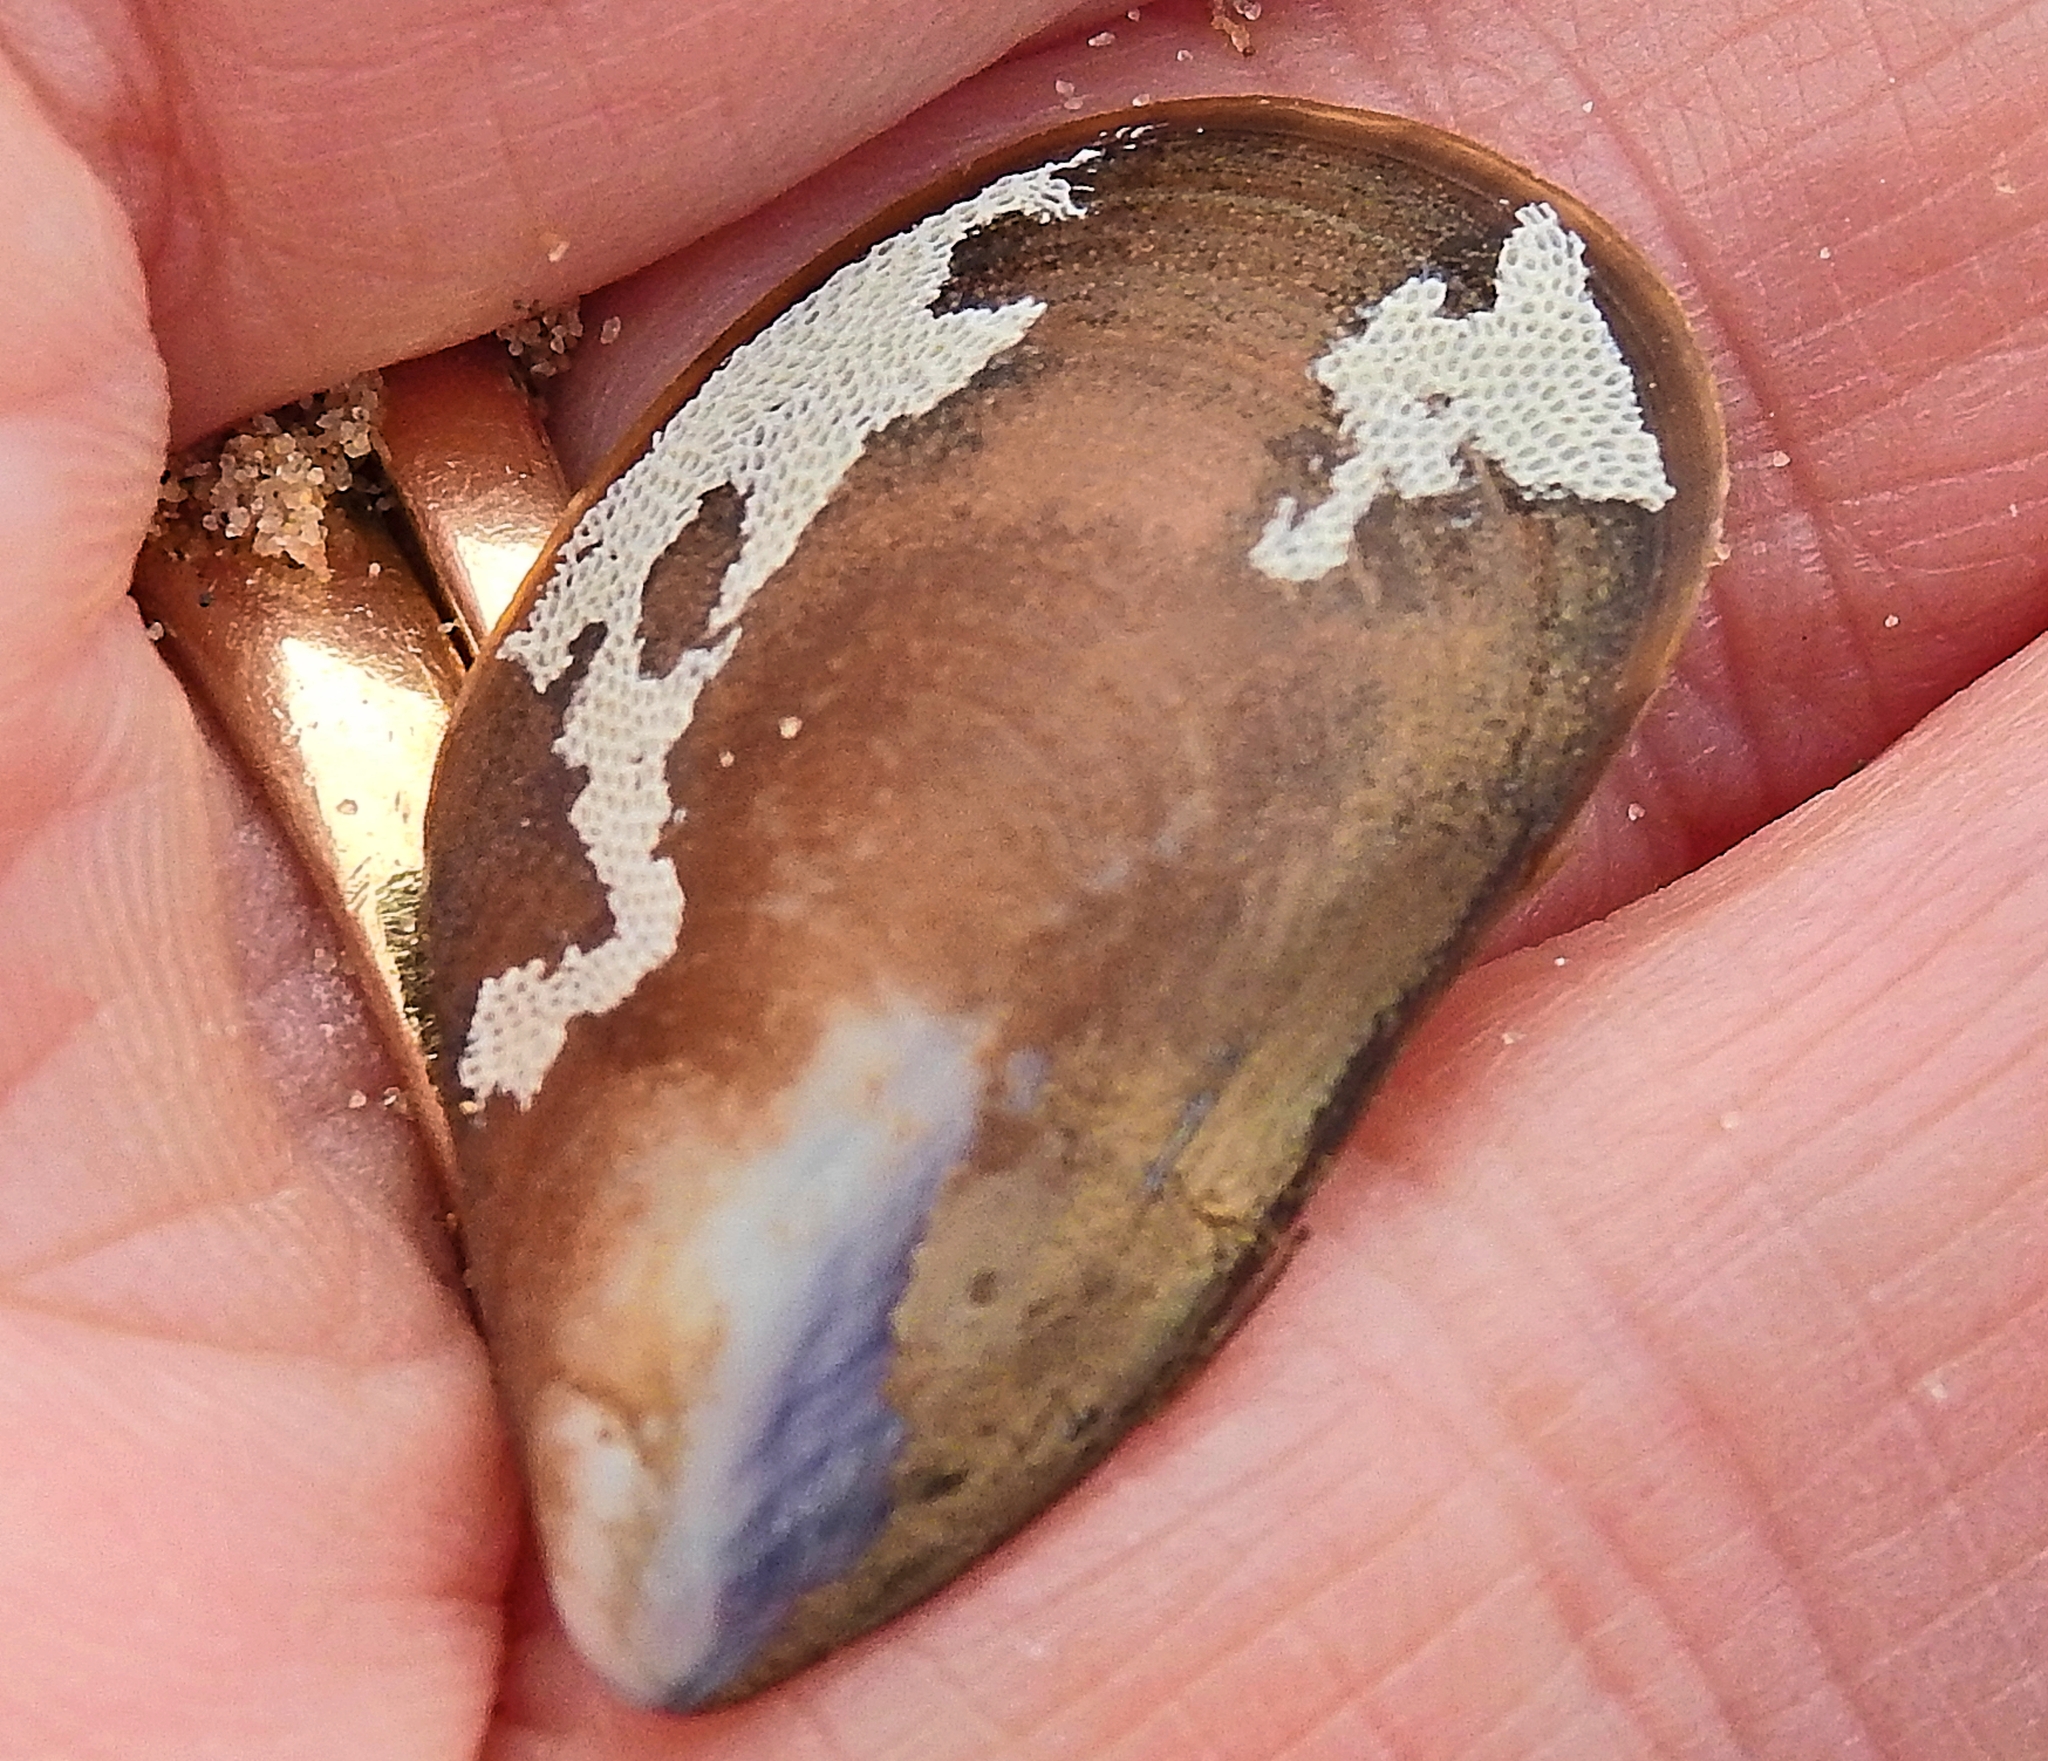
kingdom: Animalia
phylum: Bryozoa
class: Gymnolaemata
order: Cheilostomatida
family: Electridae
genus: Electra
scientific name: Electra pilosa
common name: Hairy sea-mat
